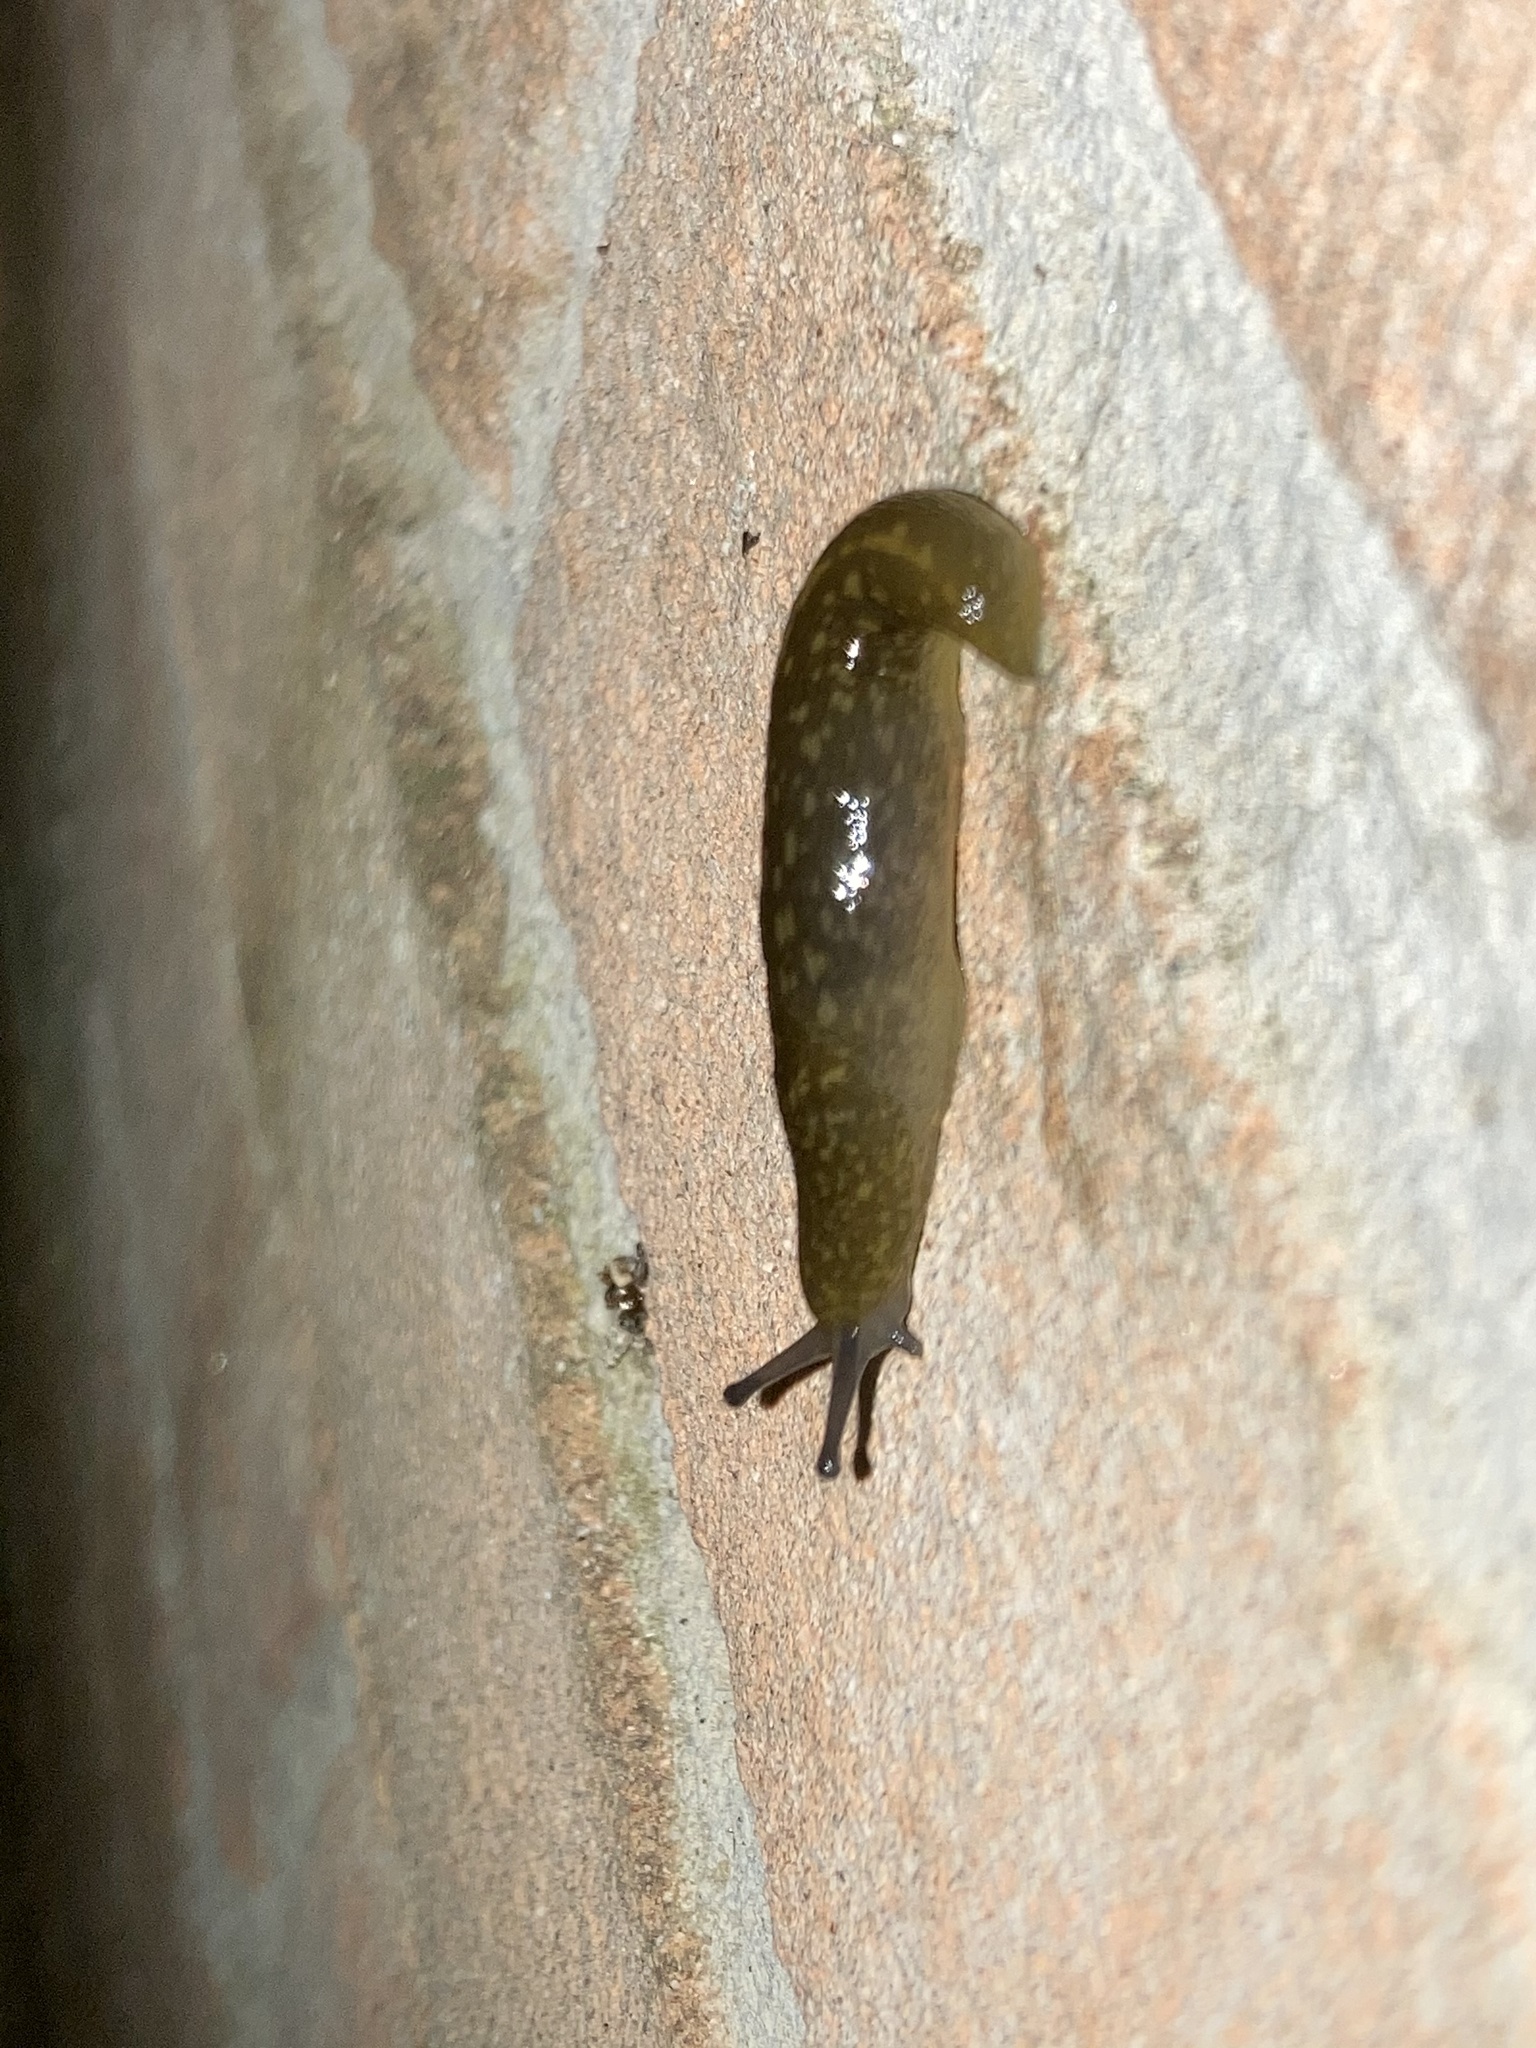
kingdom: Animalia
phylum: Mollusca
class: Gastropoda
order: Stylommatophora
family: Limacidae
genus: Limacus
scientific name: Limacus flavus
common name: Yellow gardenslug
